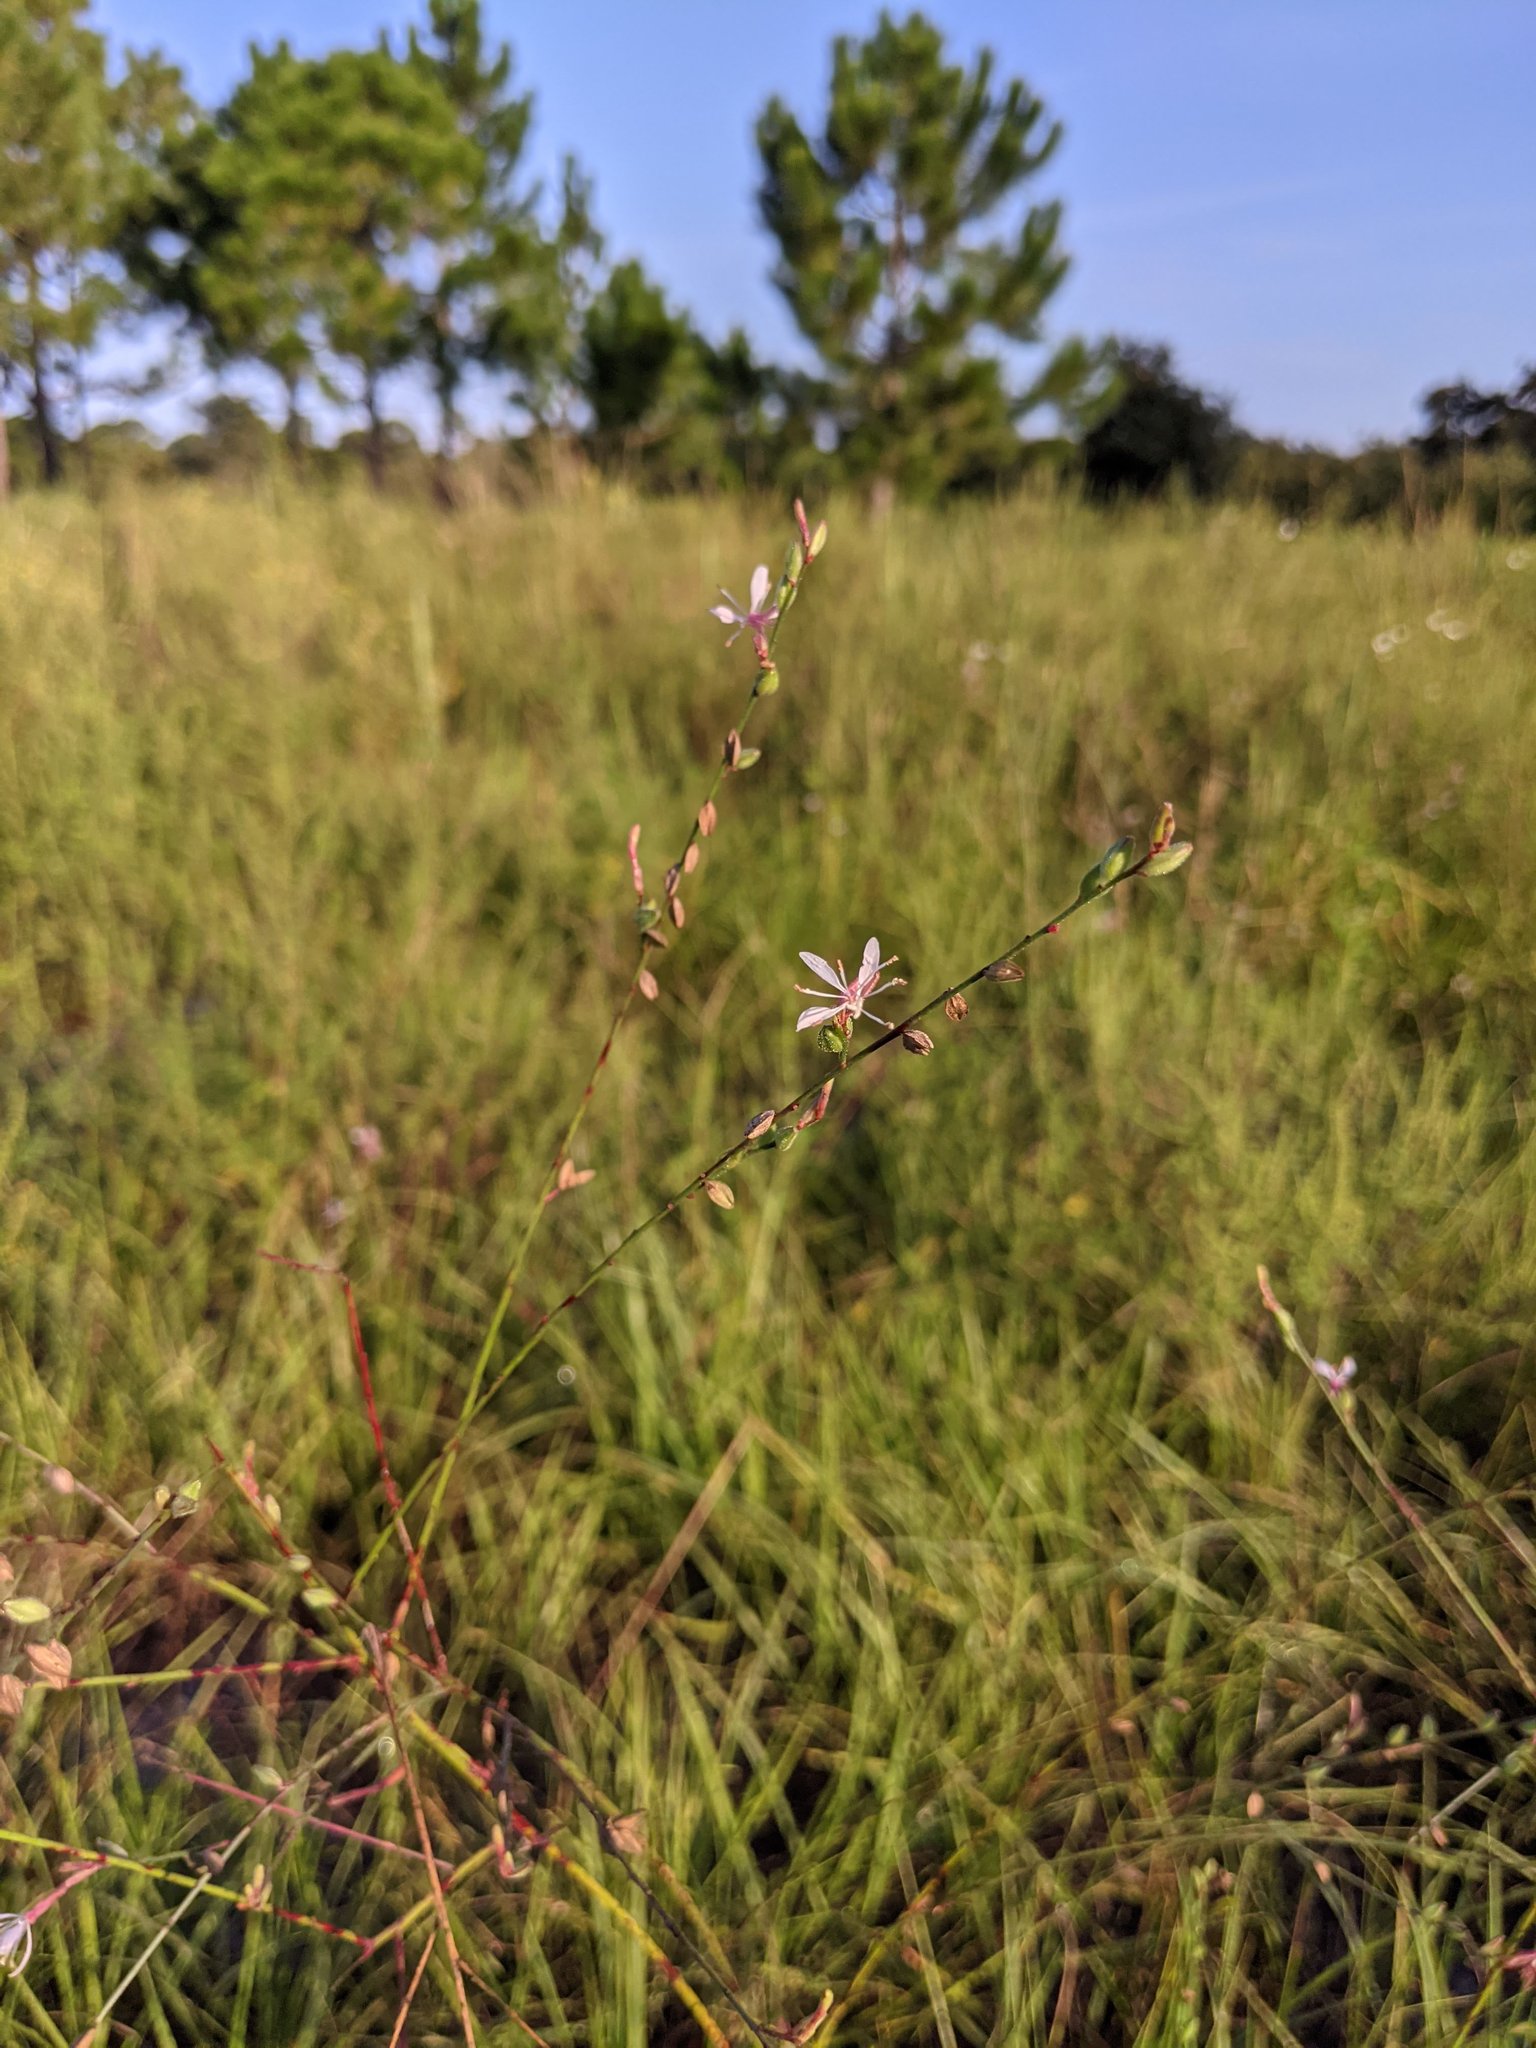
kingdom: Plantae
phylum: Tracheophyta
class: Magnoliopsida
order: Myrtales
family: Onagraceae
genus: Oenothera
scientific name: Oenothera simulans
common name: Southern beeblossom
